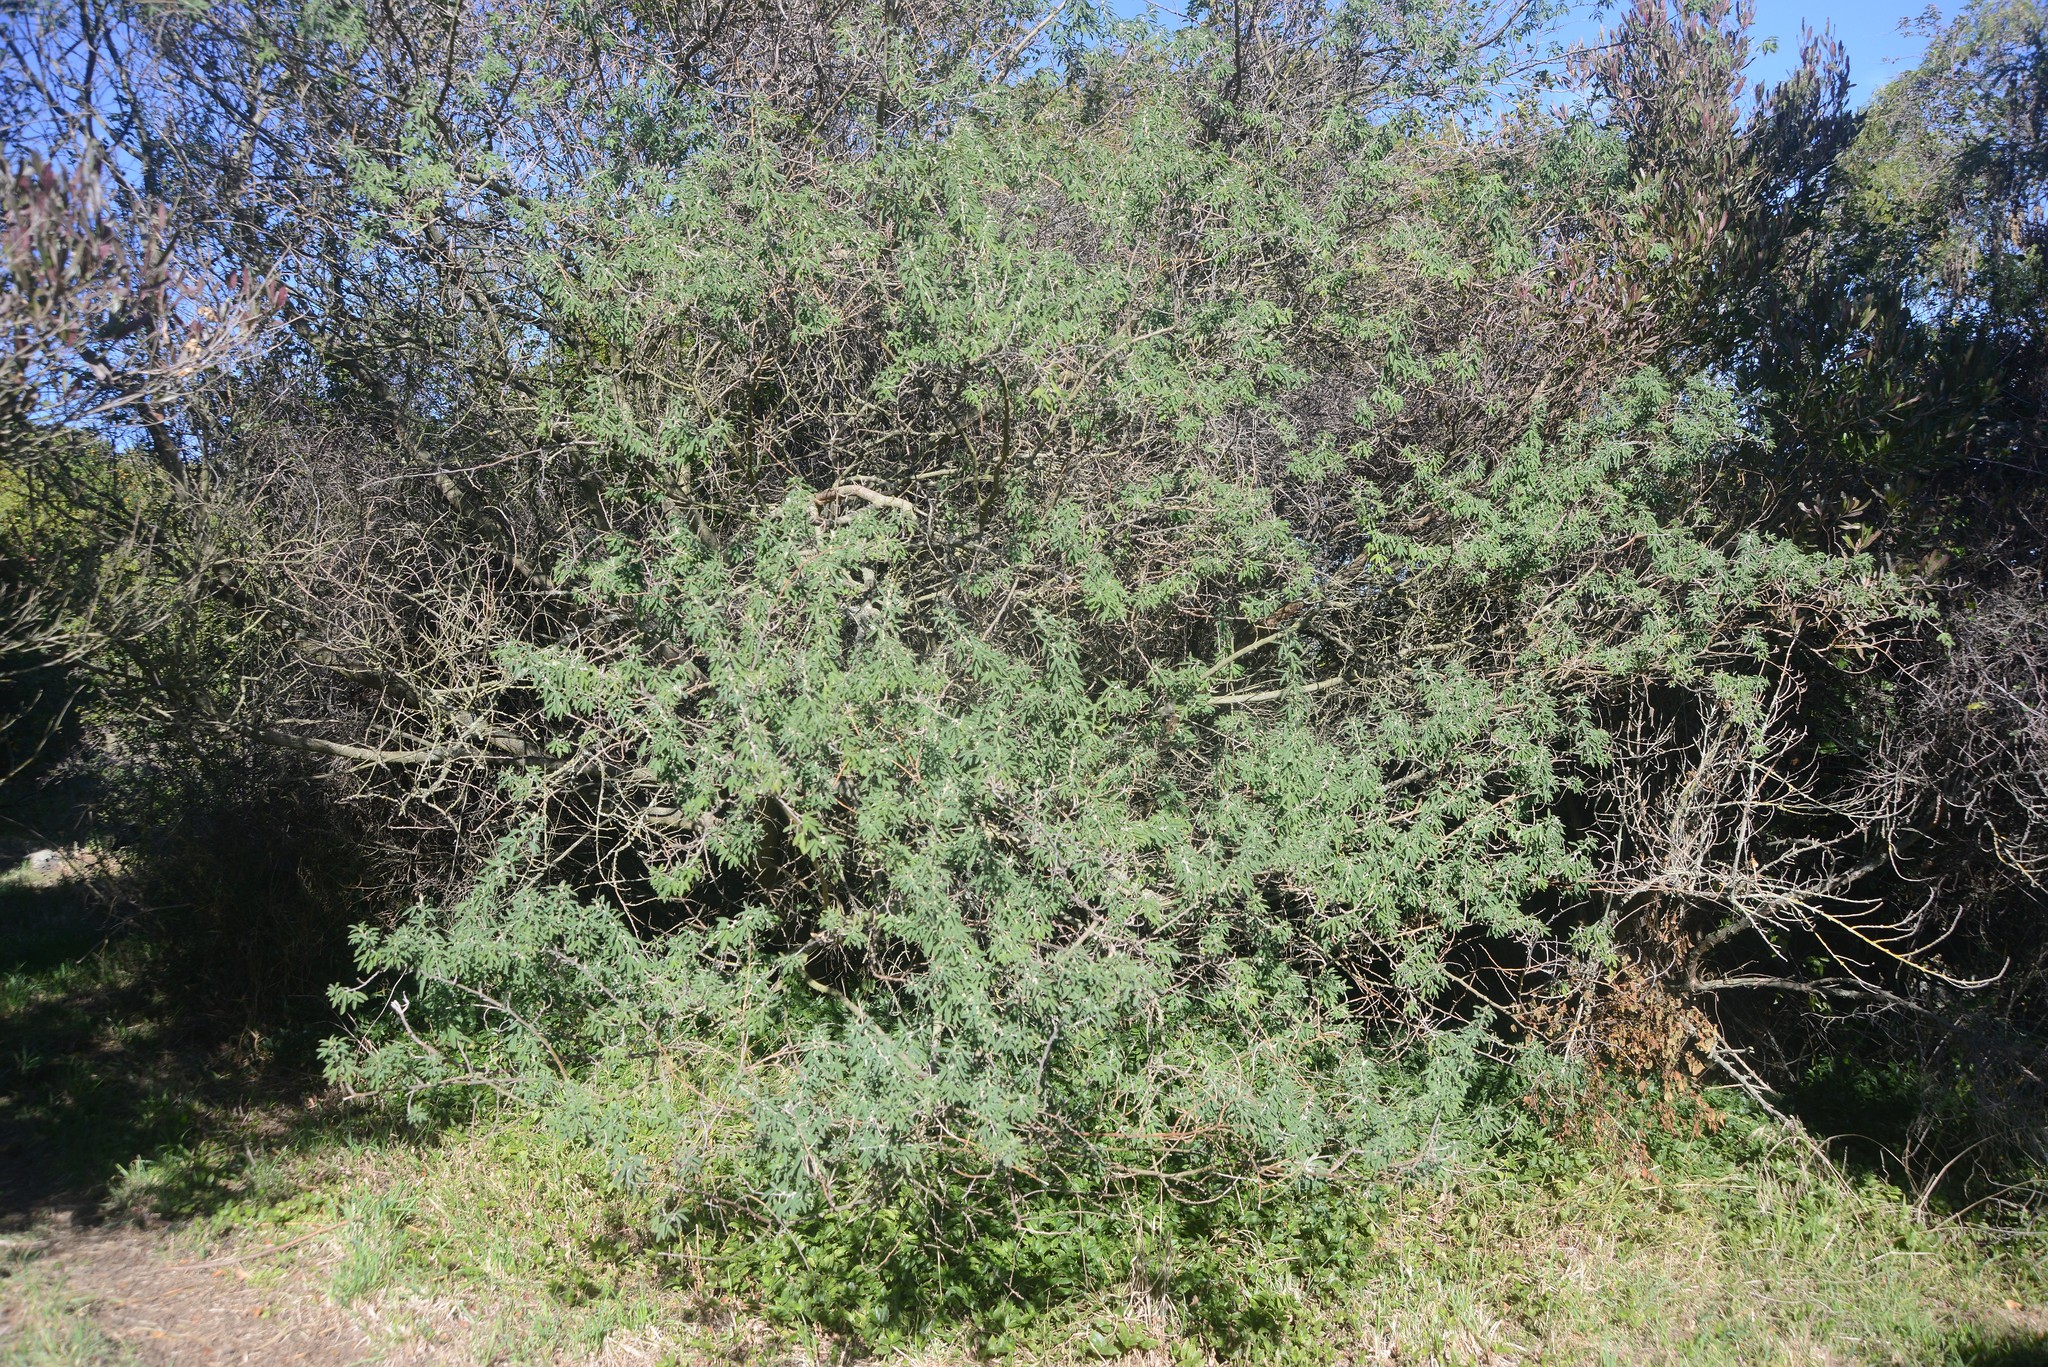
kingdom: Plantae
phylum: Tracheophyta
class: Magnoliopsida
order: Fabales
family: Fabaceae
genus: Chamaecytisus
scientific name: Chamaecytisus prolifer
